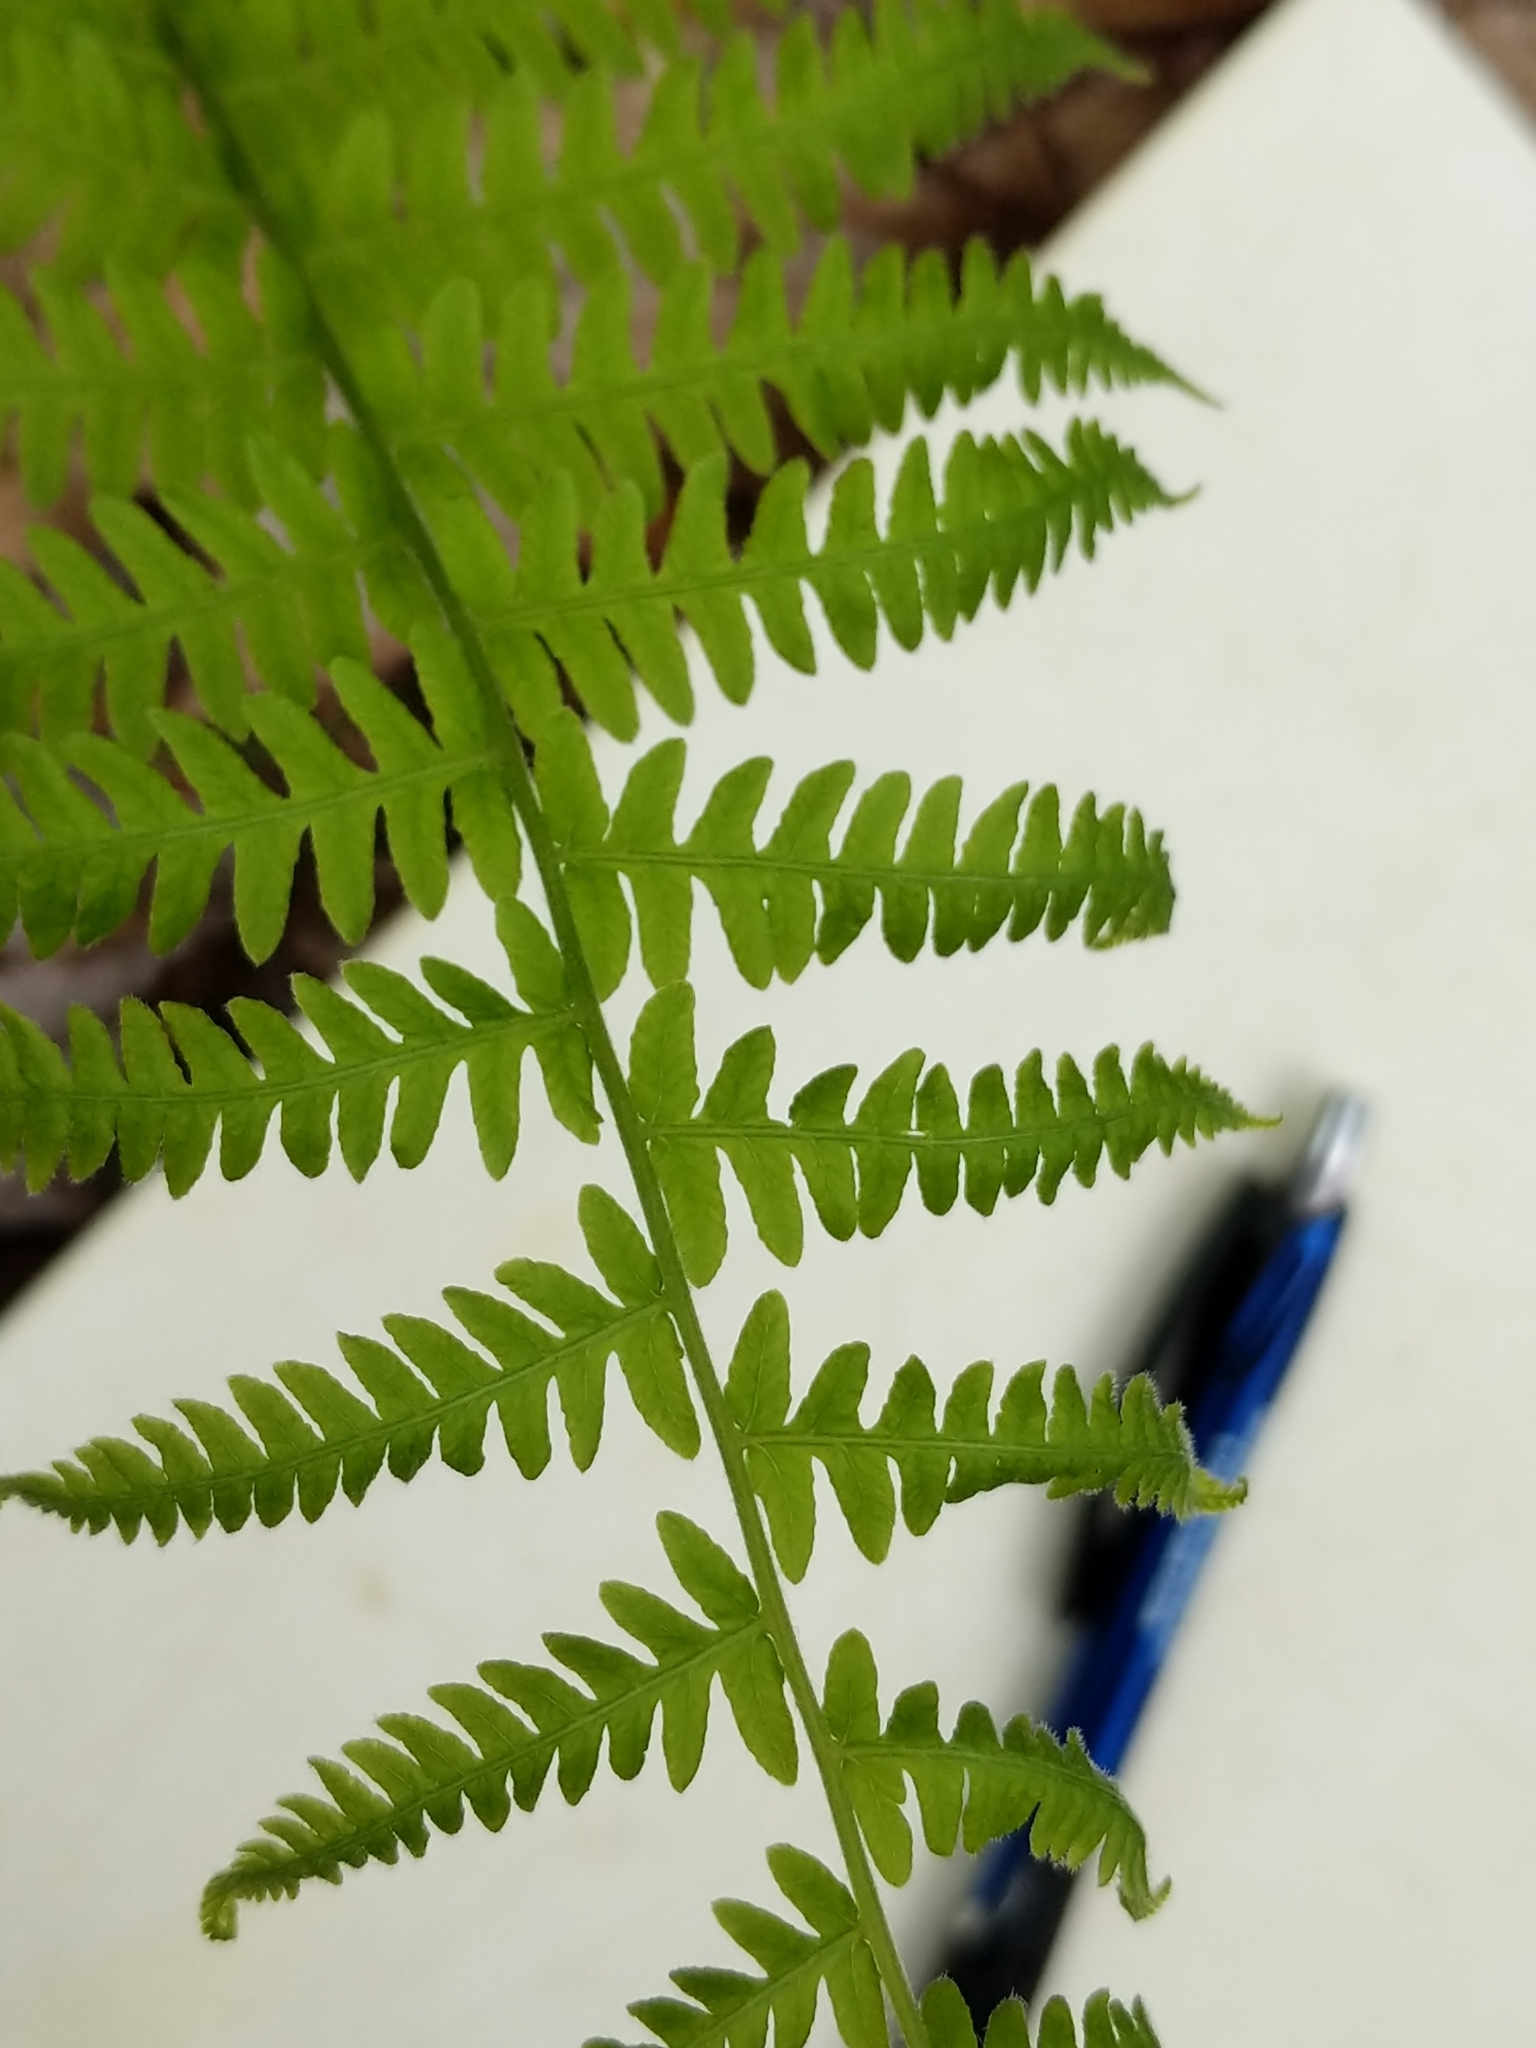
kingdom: Plantae
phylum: Tracheophyta
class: Polypodiopsida
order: Polypodiales
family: Thelypteridaceae
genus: Amauropelta
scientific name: Amauropelta noveboracensis
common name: New york fern
